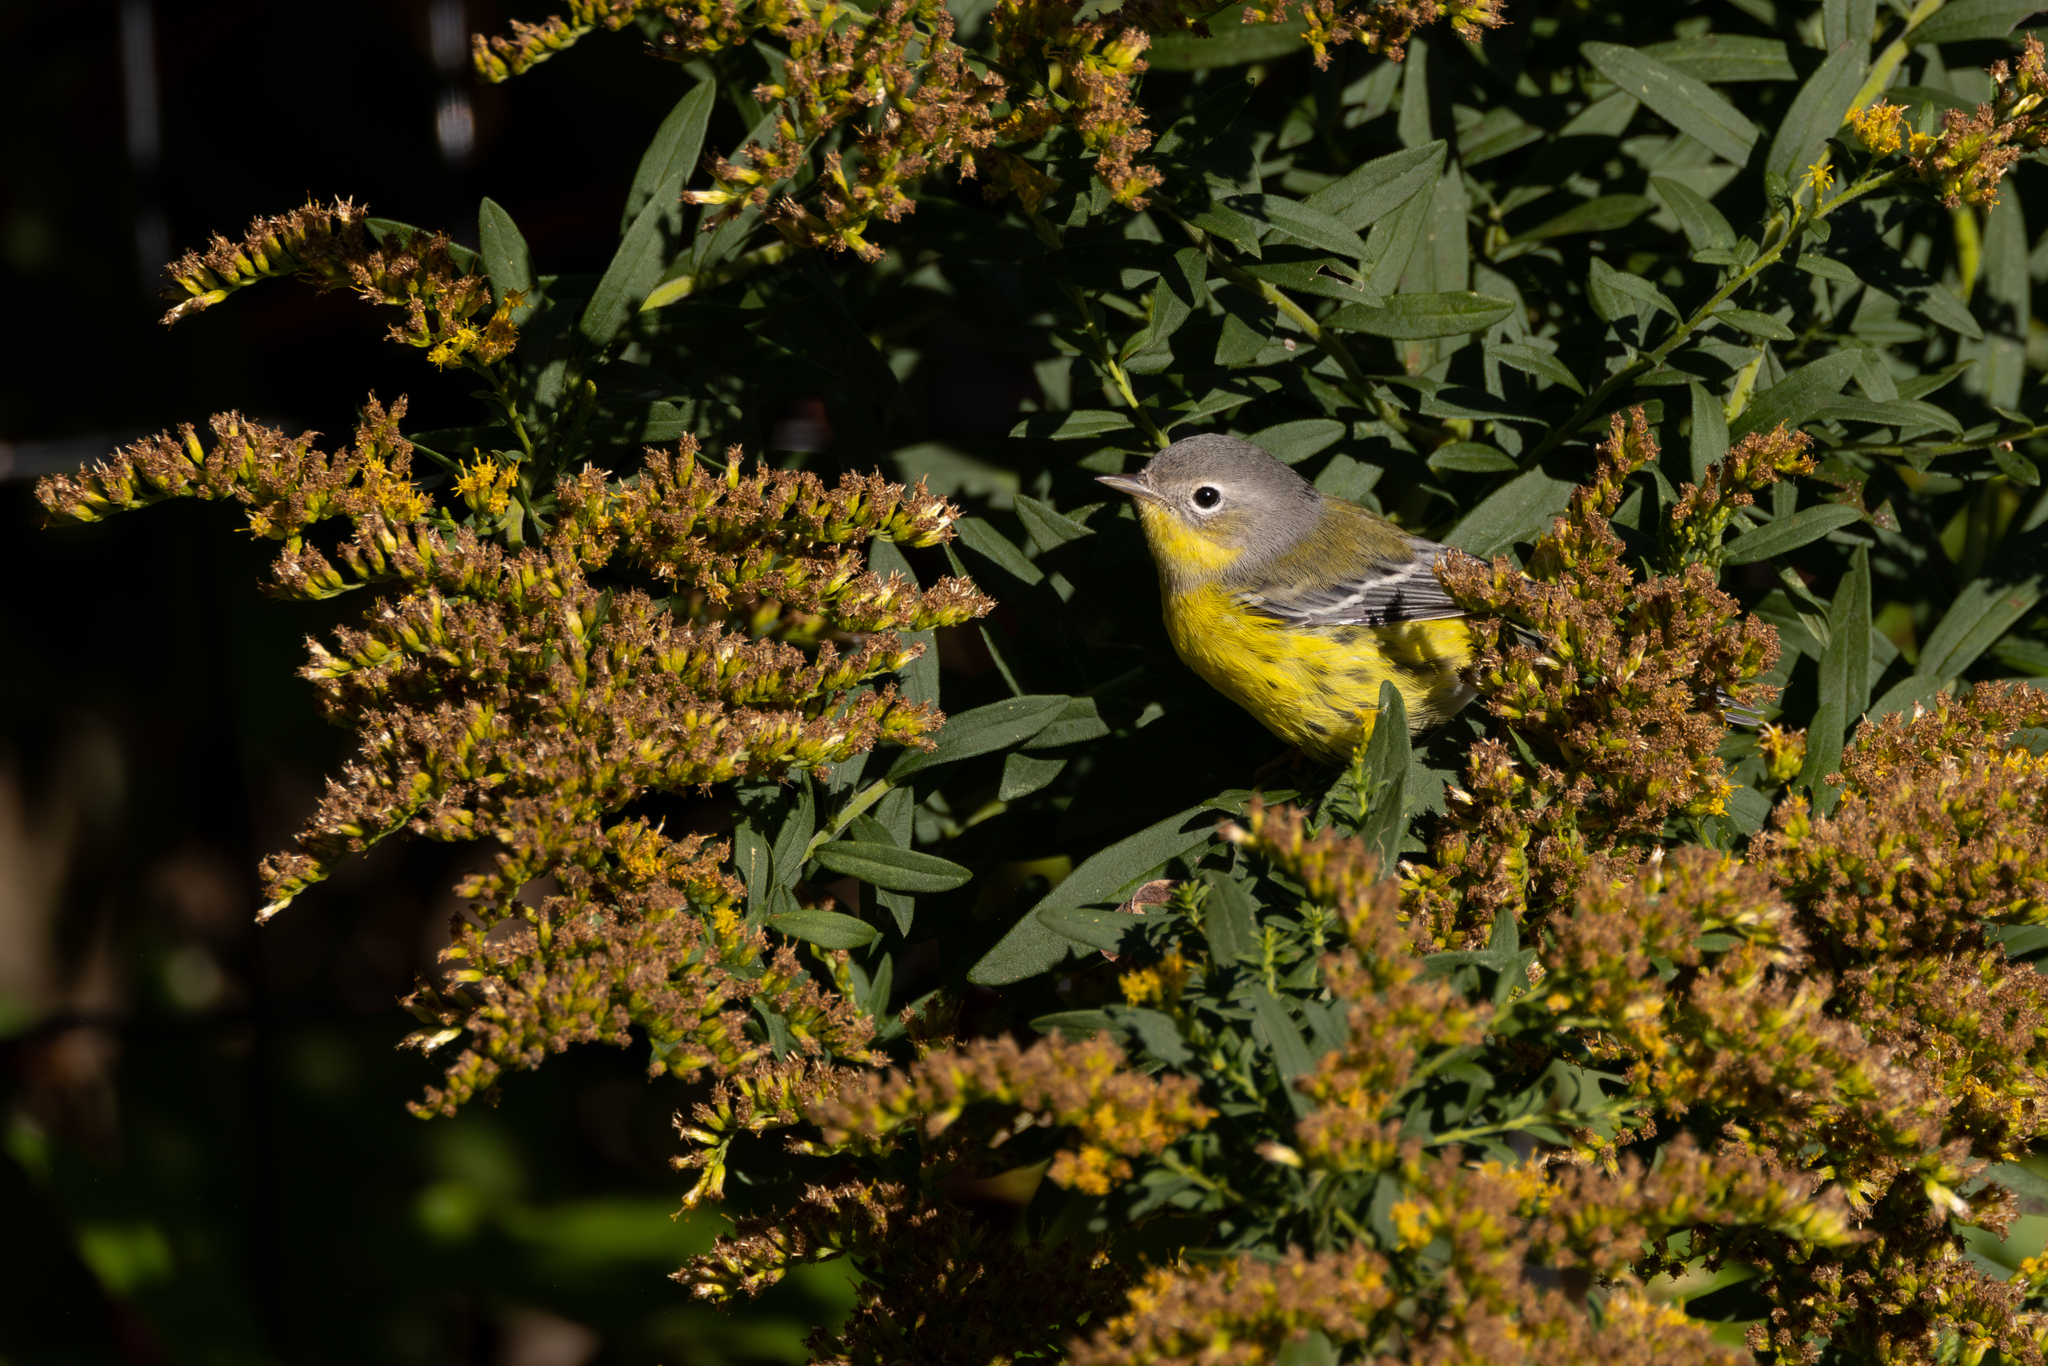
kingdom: Animalia
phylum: Chordata
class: Aves
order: Passeriformes
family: Parulidae
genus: Setophaga
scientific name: Setophaga magnolia
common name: Magnolia warbler
